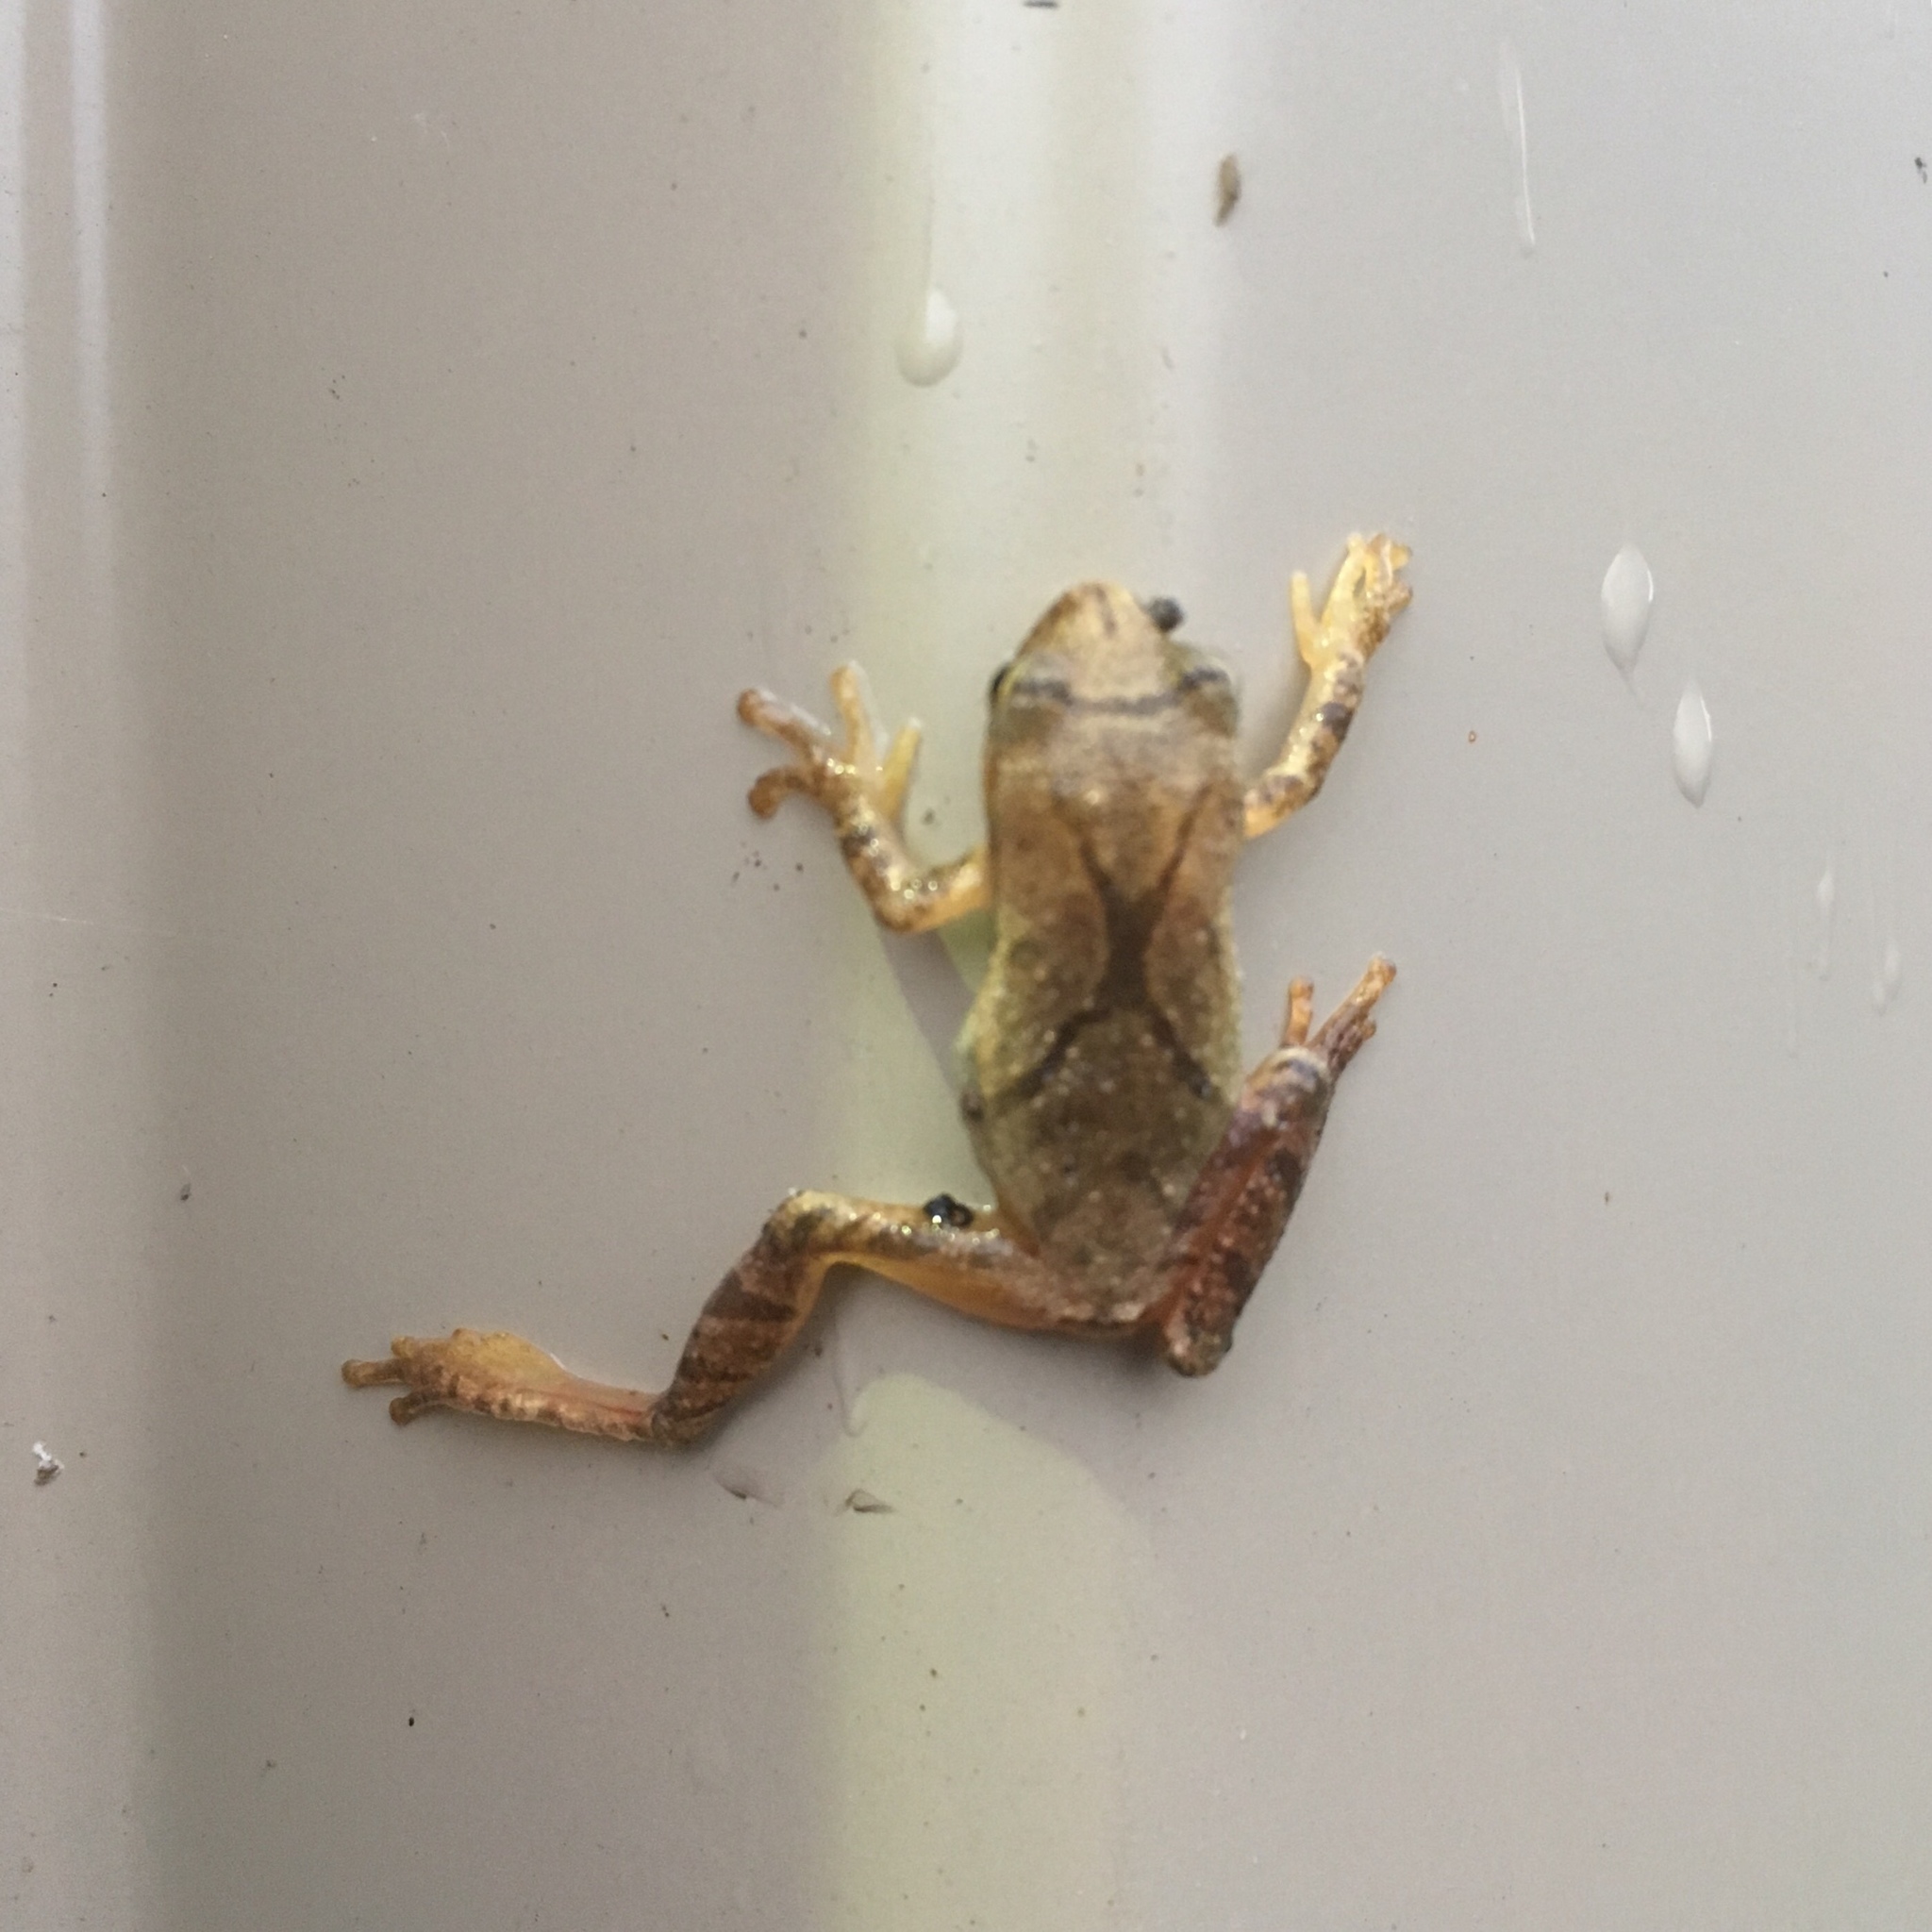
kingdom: Animalia
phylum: Chordata
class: Amphibia
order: Anura
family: Hylidae
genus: Pseudacris
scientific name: Pseudacris crucifer
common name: Spring peeper
